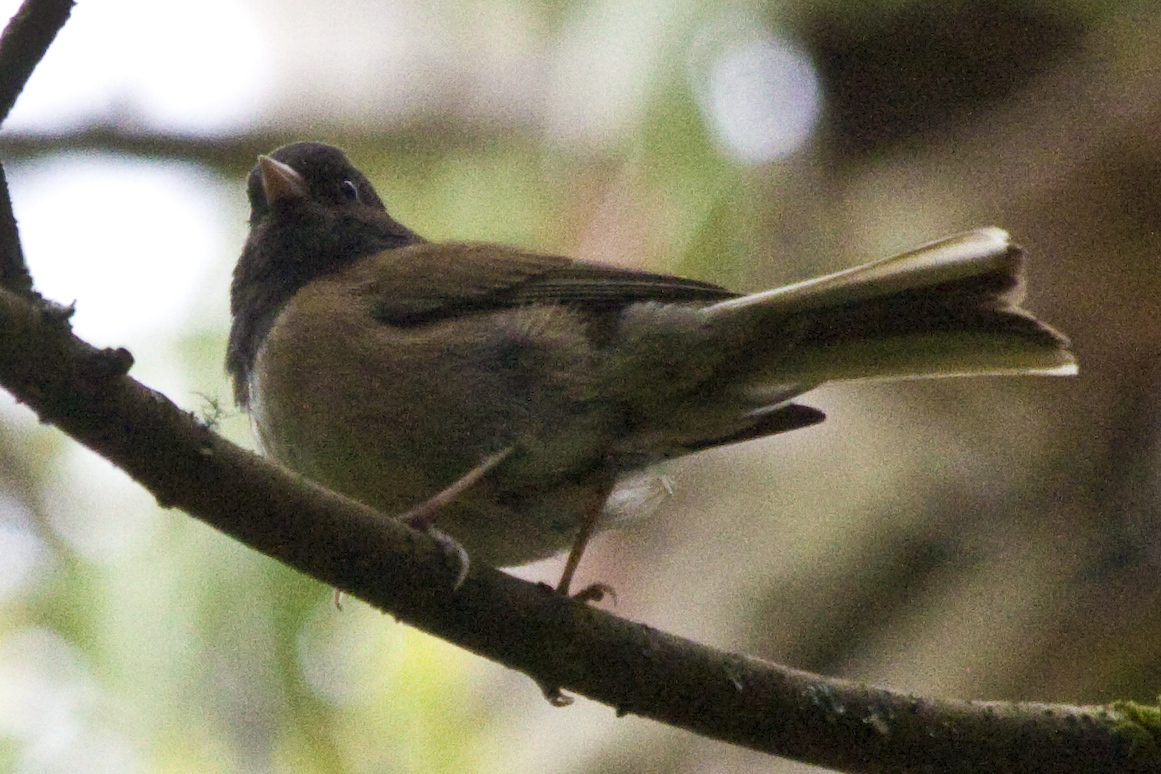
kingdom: Animalia
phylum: Chordata
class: Aves
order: Passeriformes
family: Passerellidae
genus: Junco
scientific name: Junco hyemalis
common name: Dark-eyed junco
